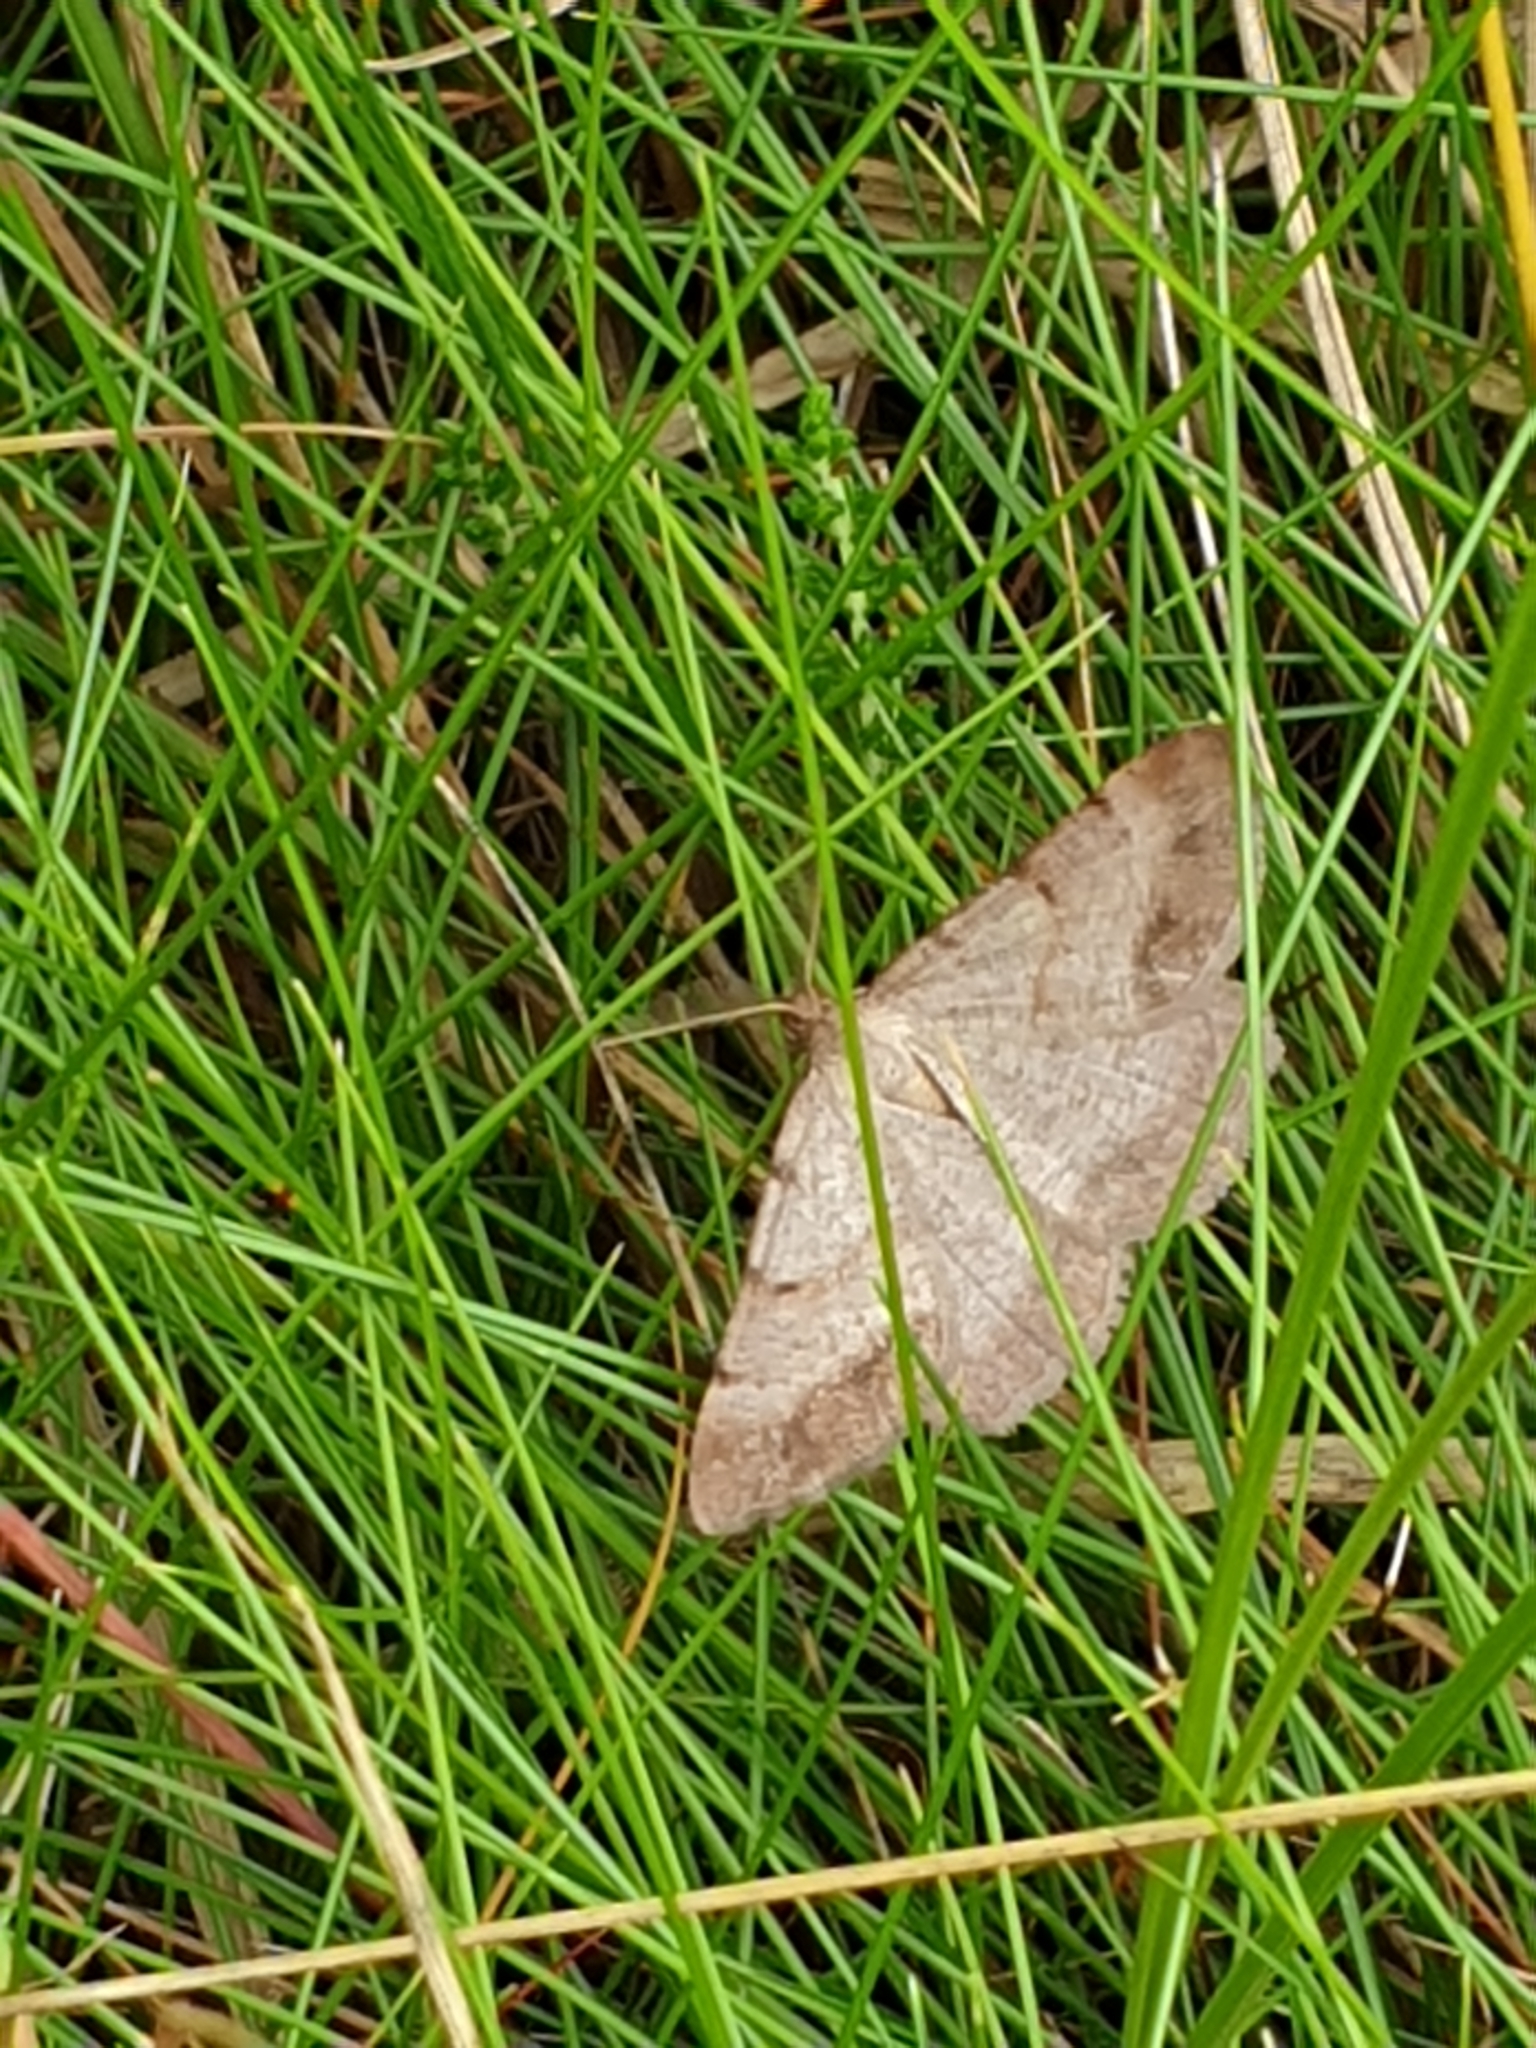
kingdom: Animalia
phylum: Arthropoda
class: Insecta
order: Lepidoptera
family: Geometridae
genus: Selidosema
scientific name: Selidosema brunnearia
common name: Bordered grey
